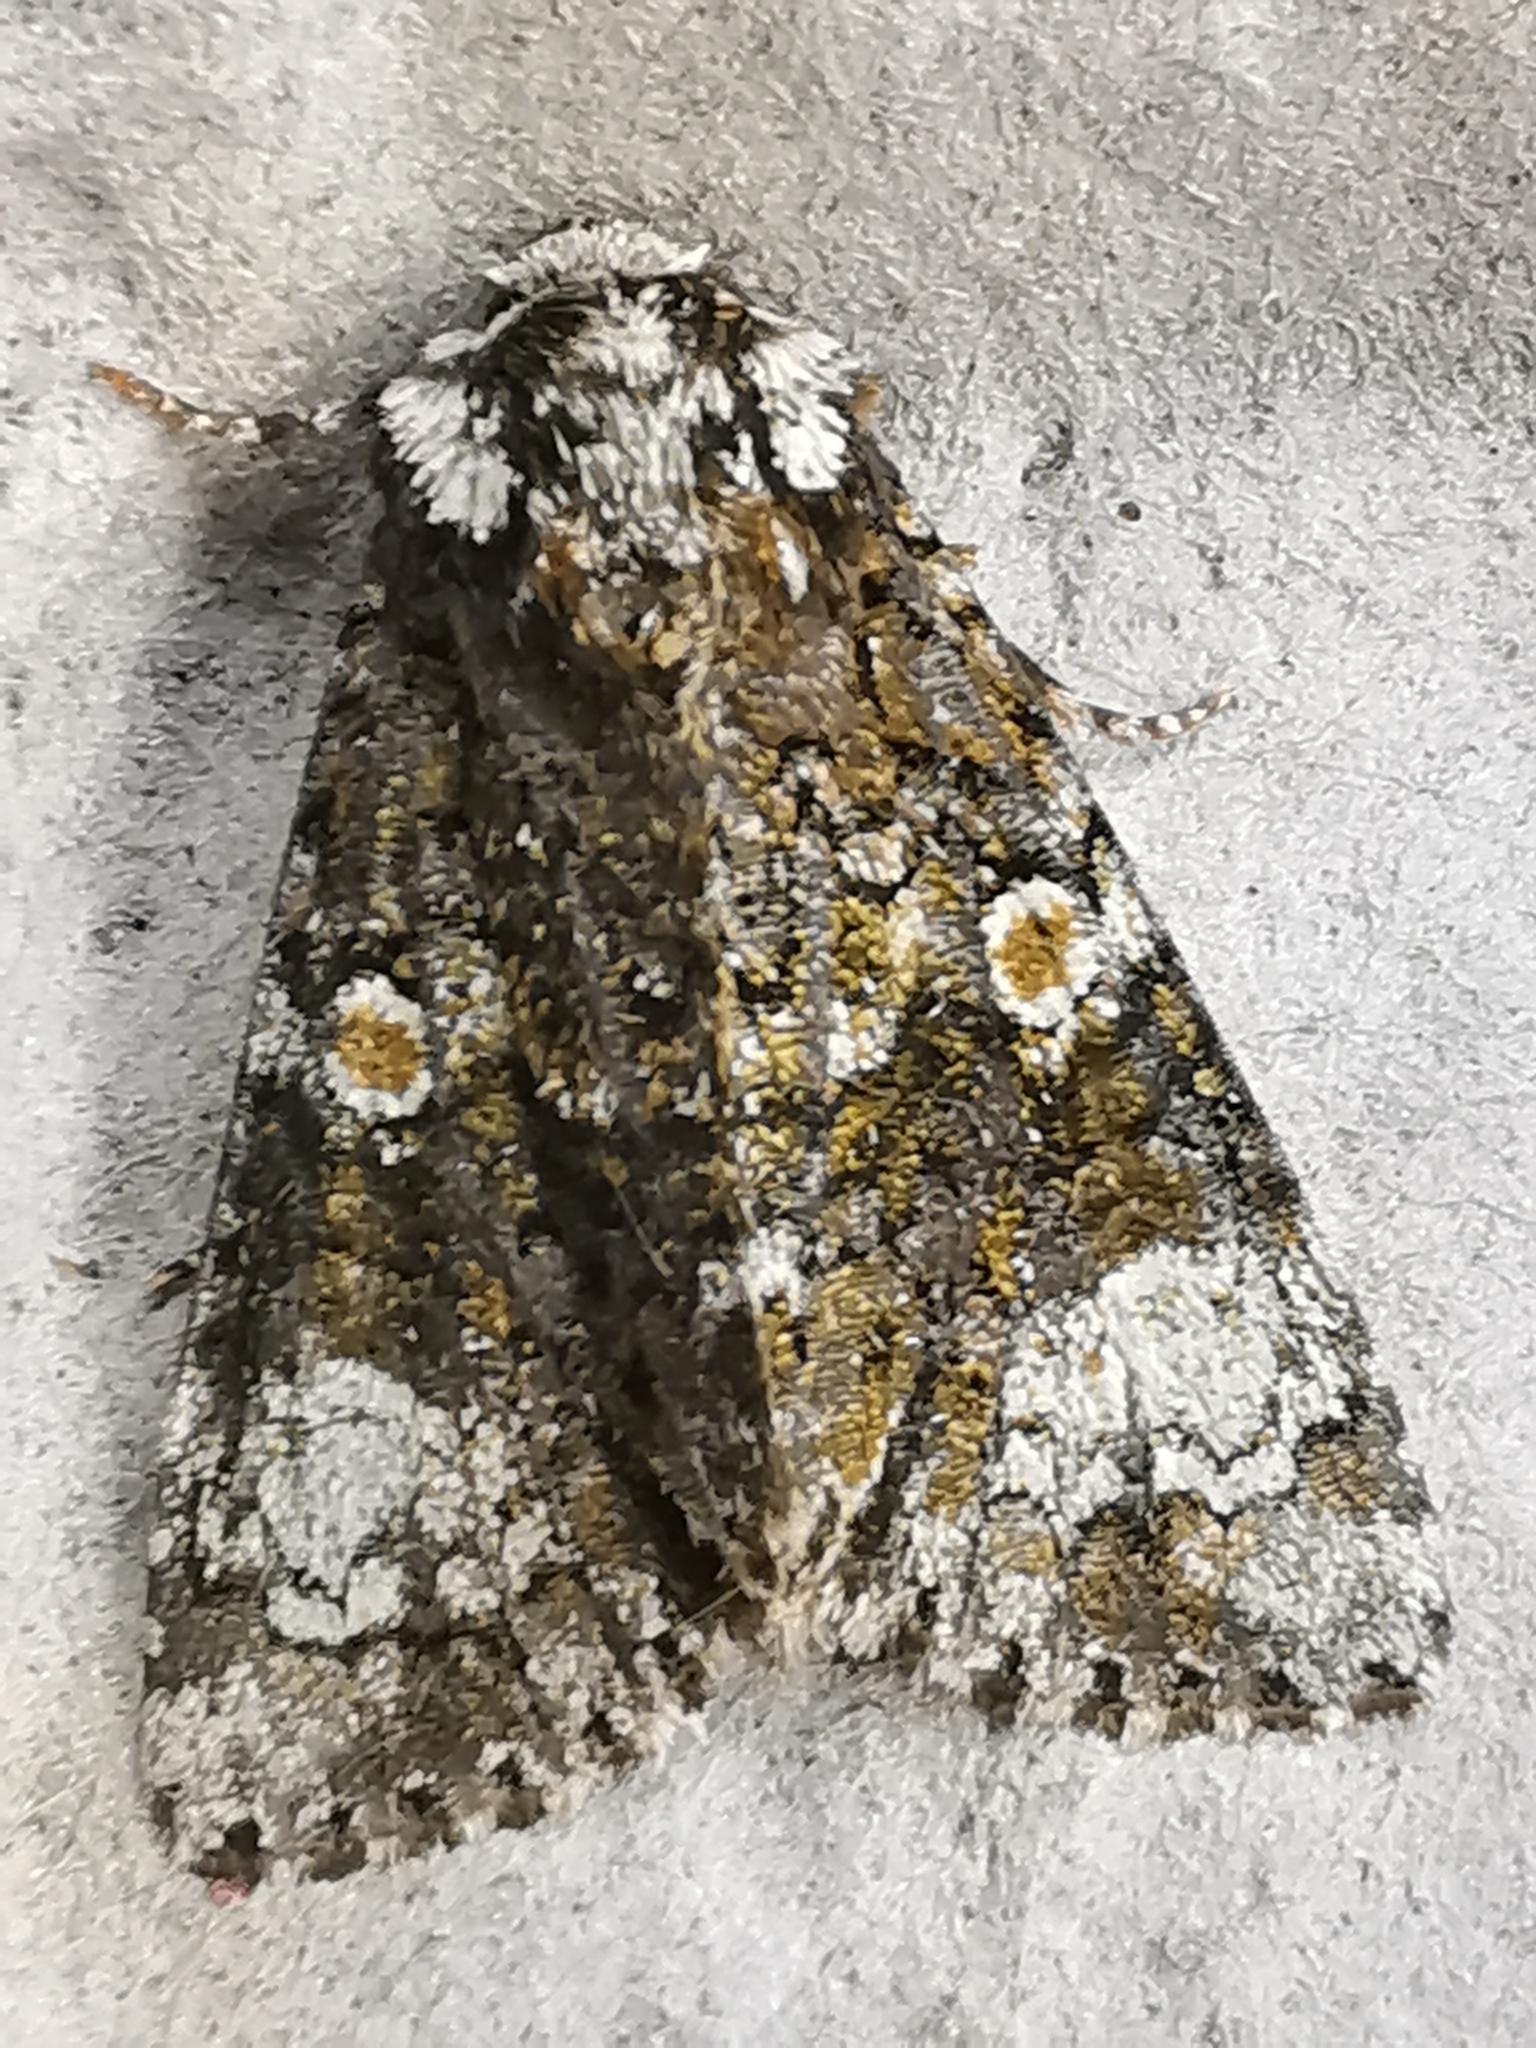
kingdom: Animalia
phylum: Arthropoda
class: Insecta
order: Lepidoptera
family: Noctuidae
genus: Craniophora
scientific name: Craniophora ligustri
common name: Coronet
